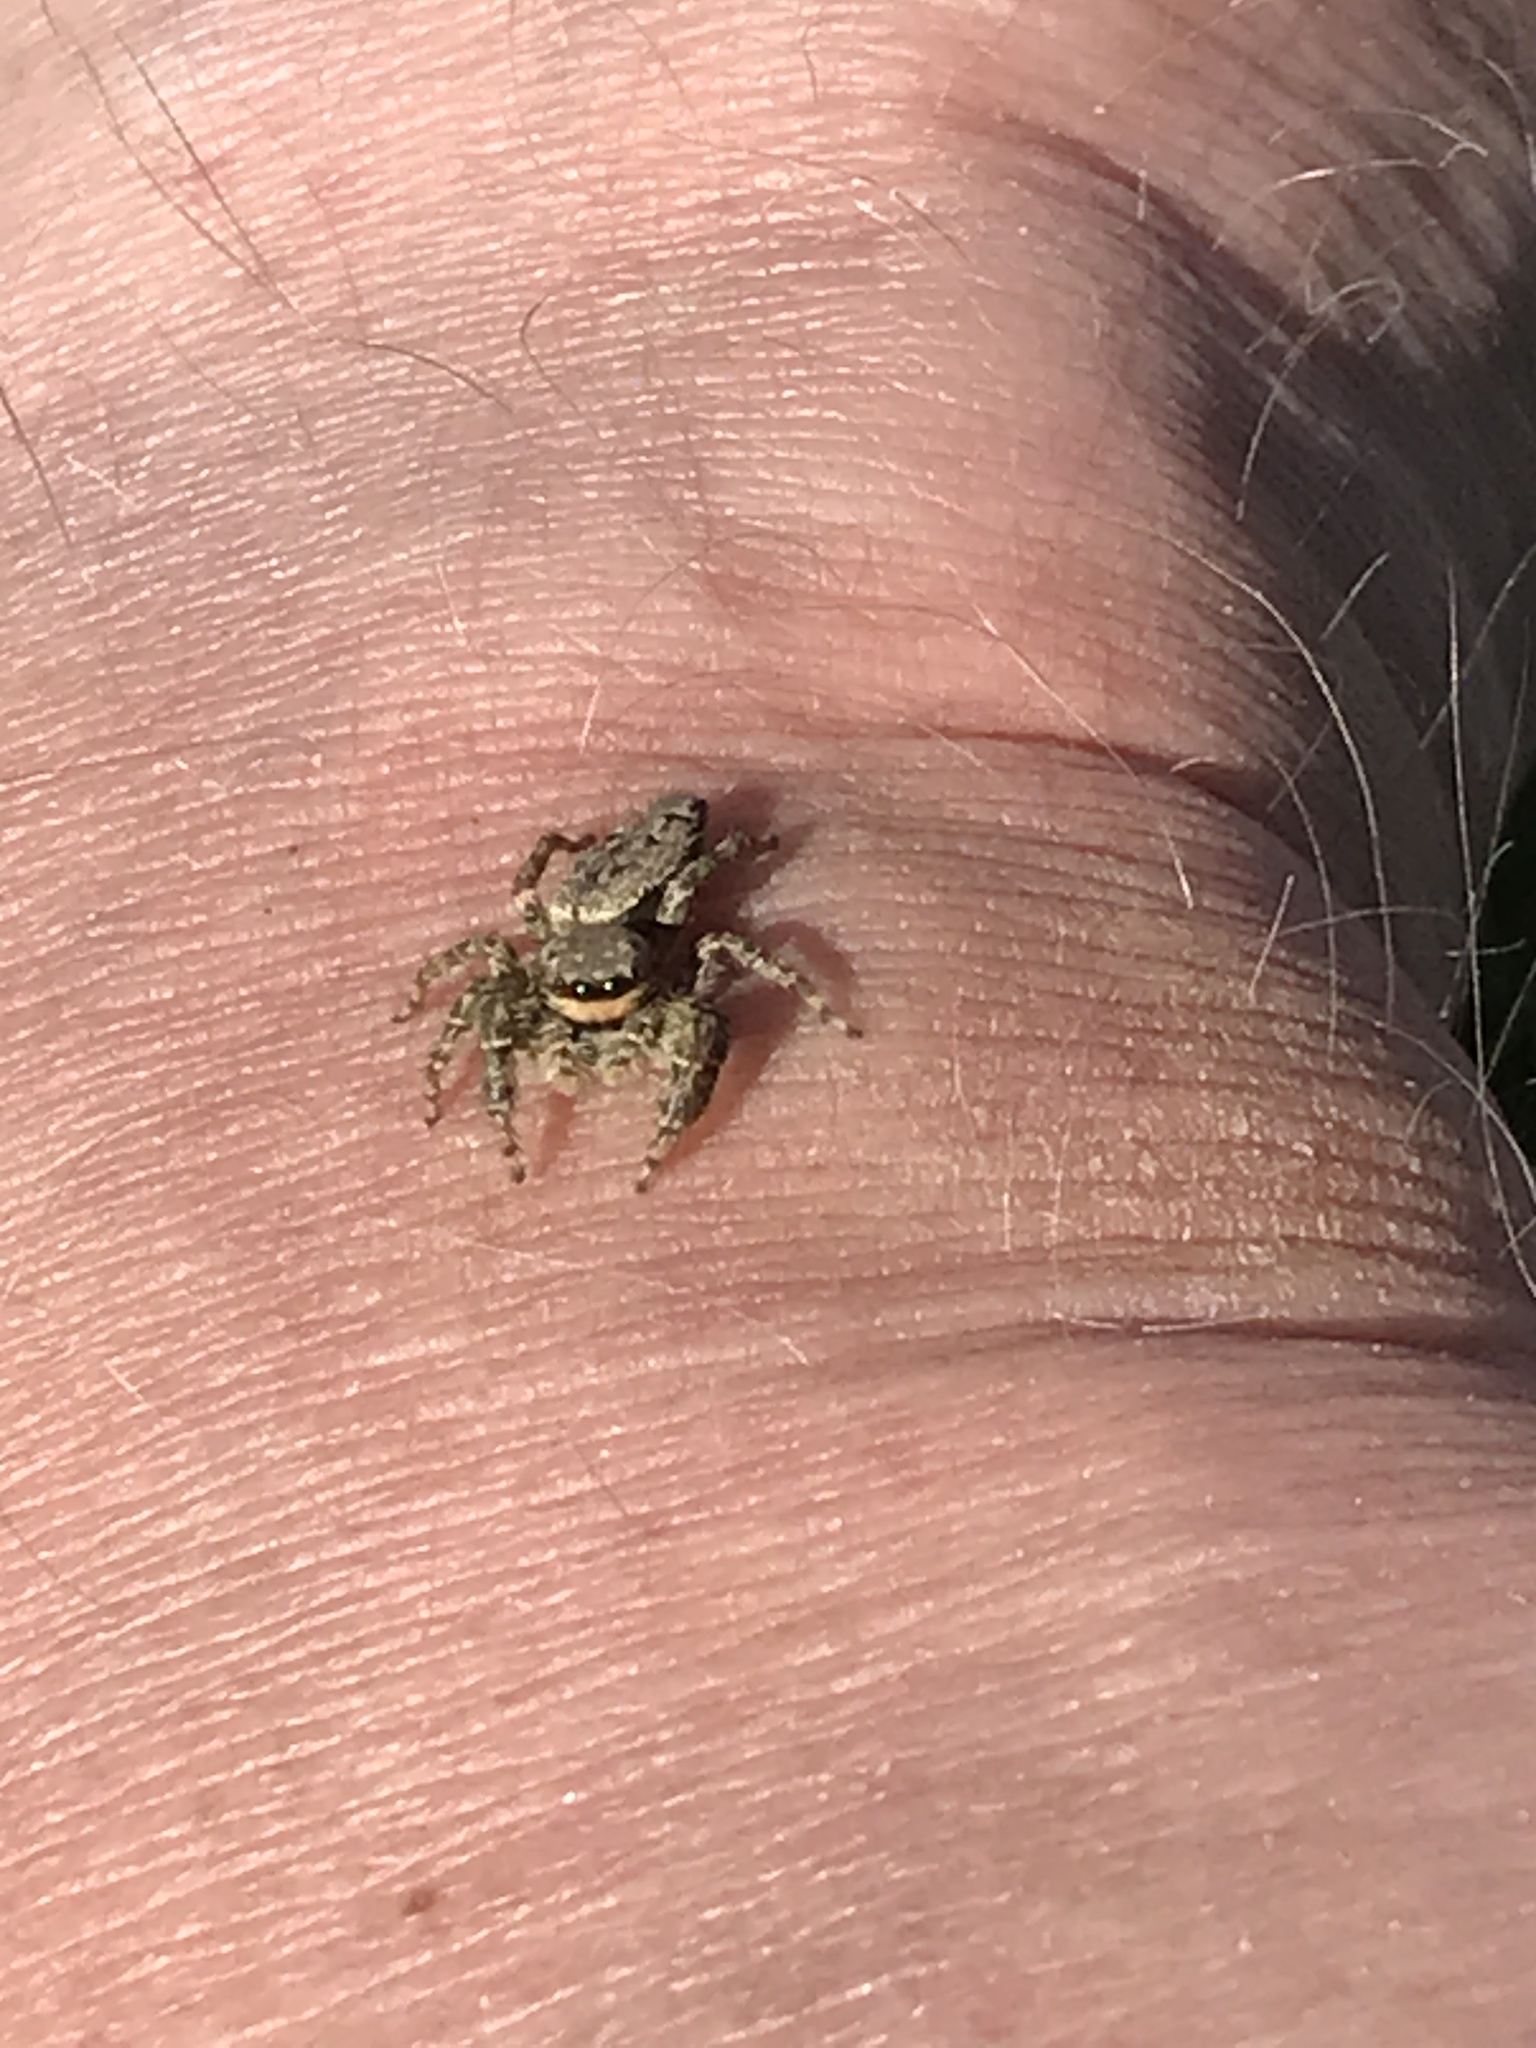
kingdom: Animalia
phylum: Arthropoda
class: Arachnida
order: Araneae
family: Salticidae
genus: Marpissa
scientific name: Marpissa muscosa
